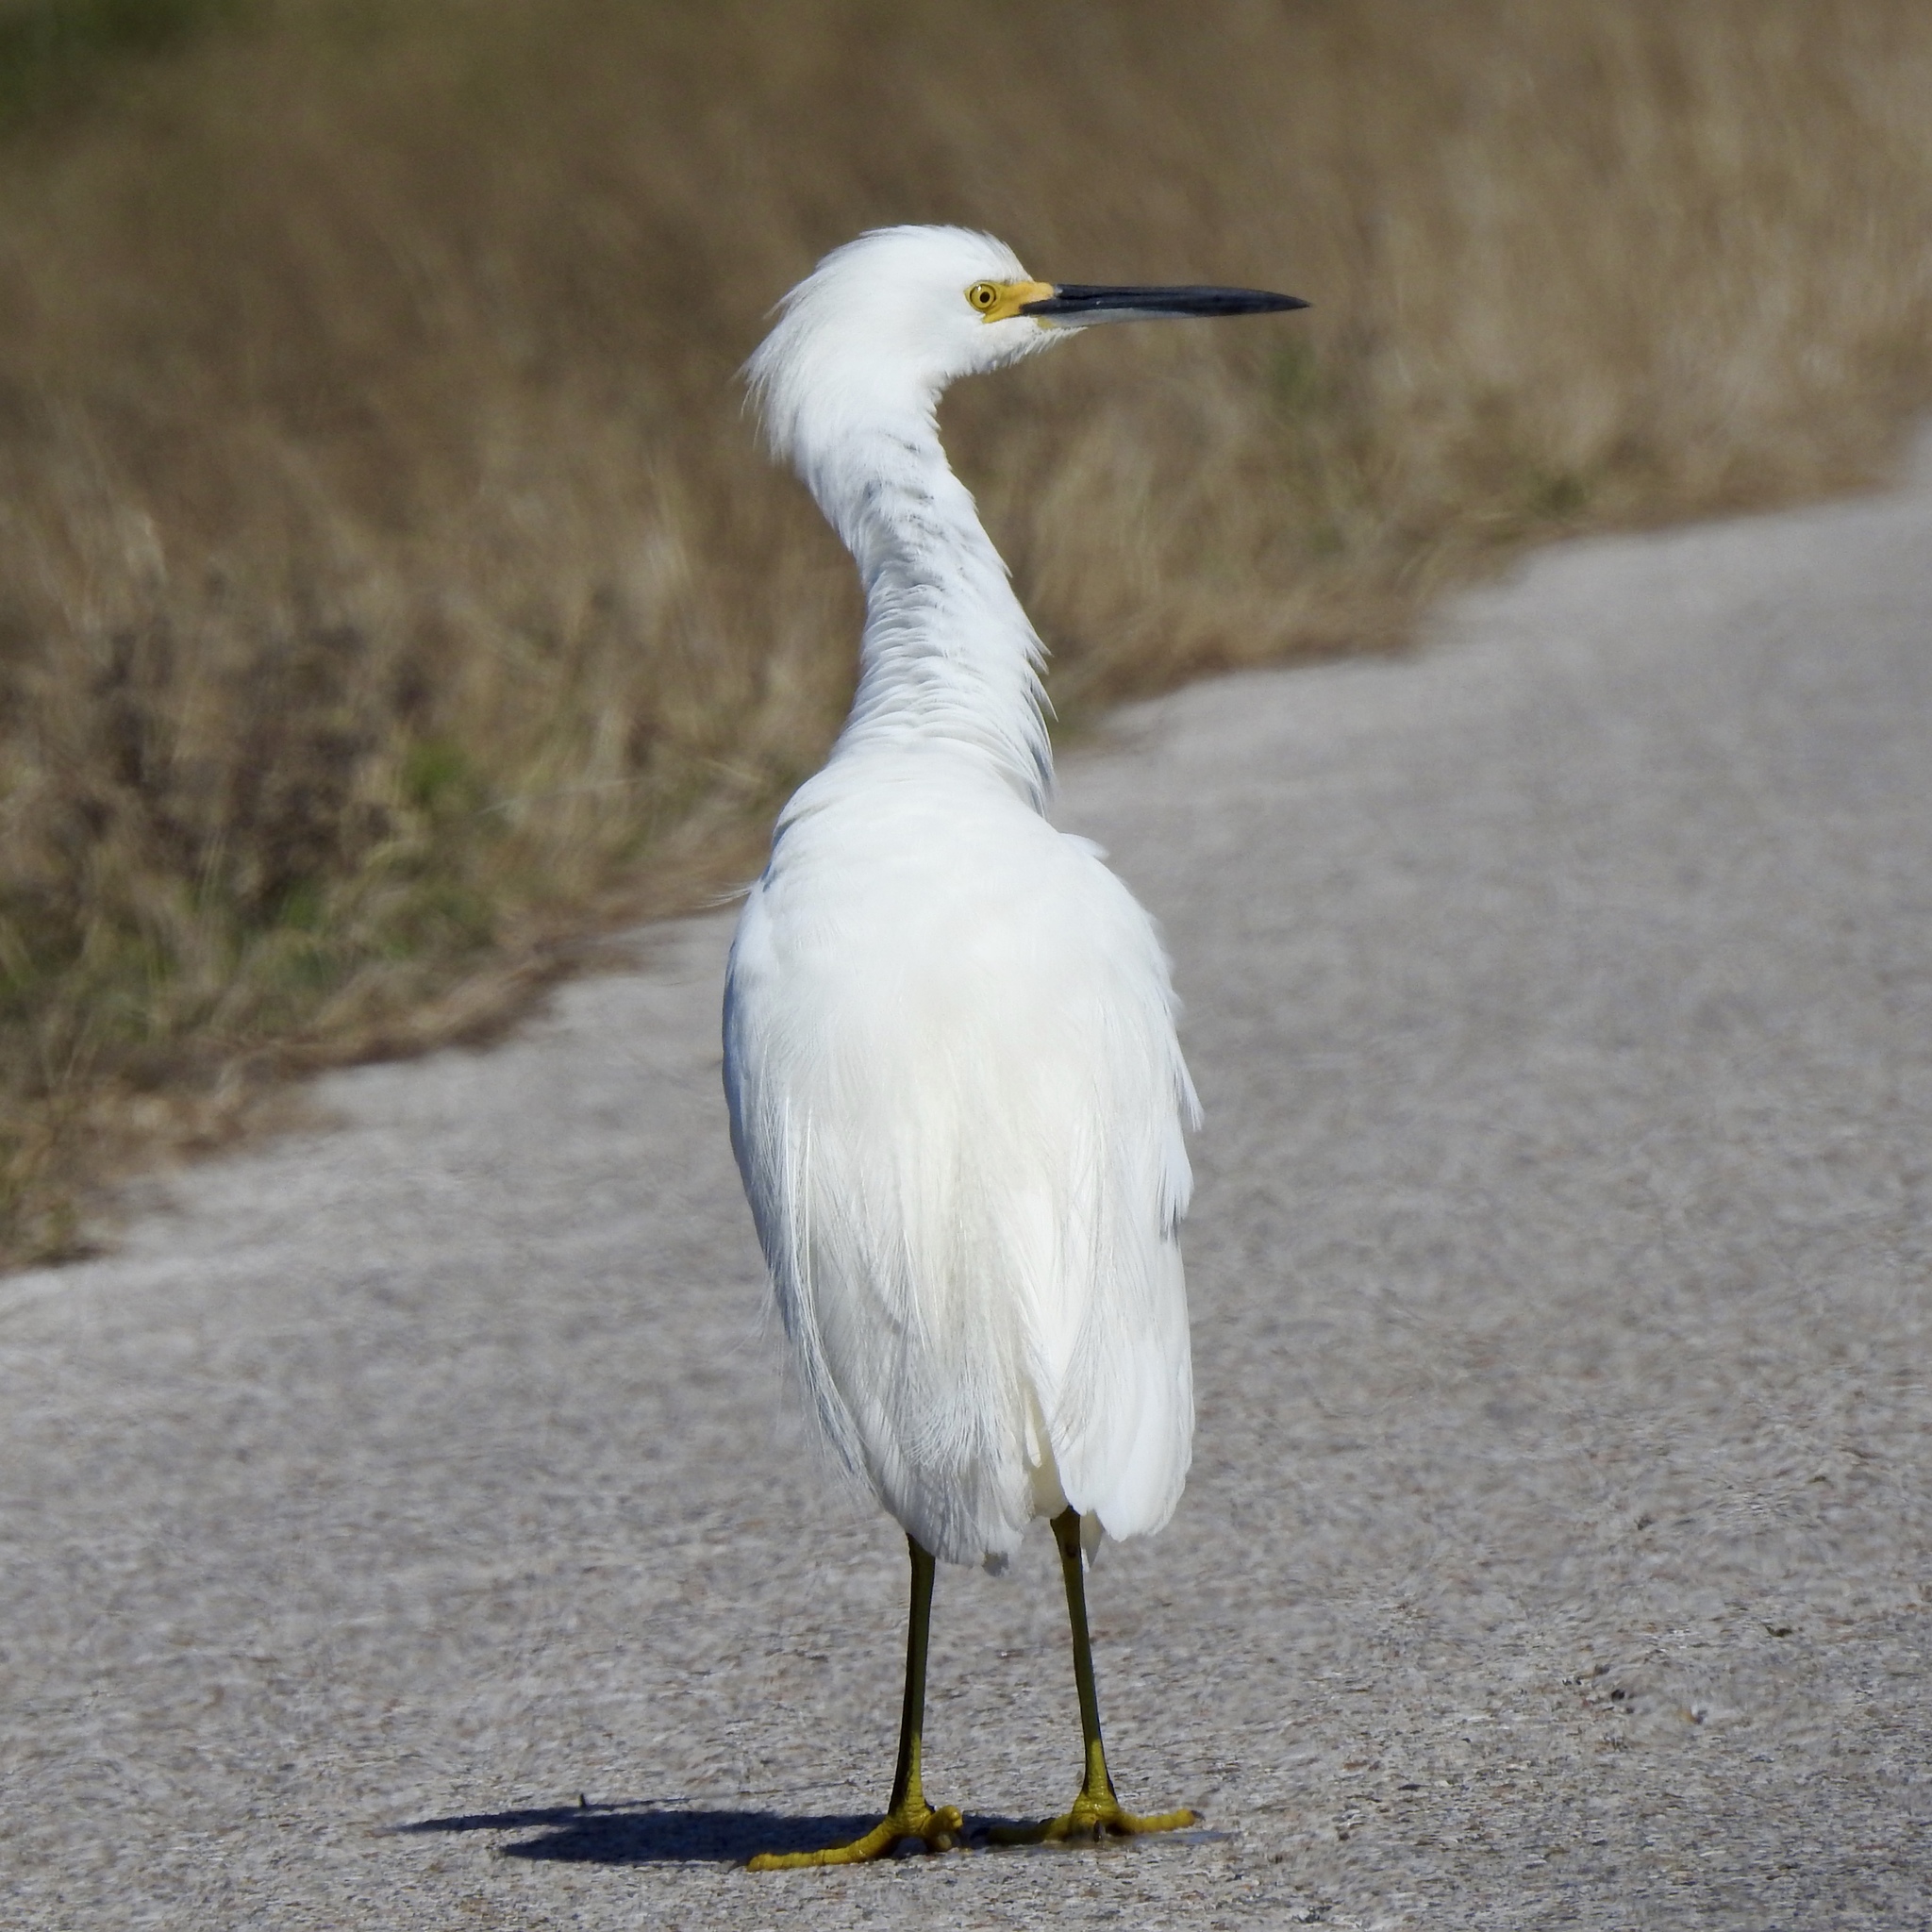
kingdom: Animalia
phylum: Chordata
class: Aves
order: Pelecaniformes
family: Ardeidae
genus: Egretta
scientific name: Egretta thula
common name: Snowy egret
